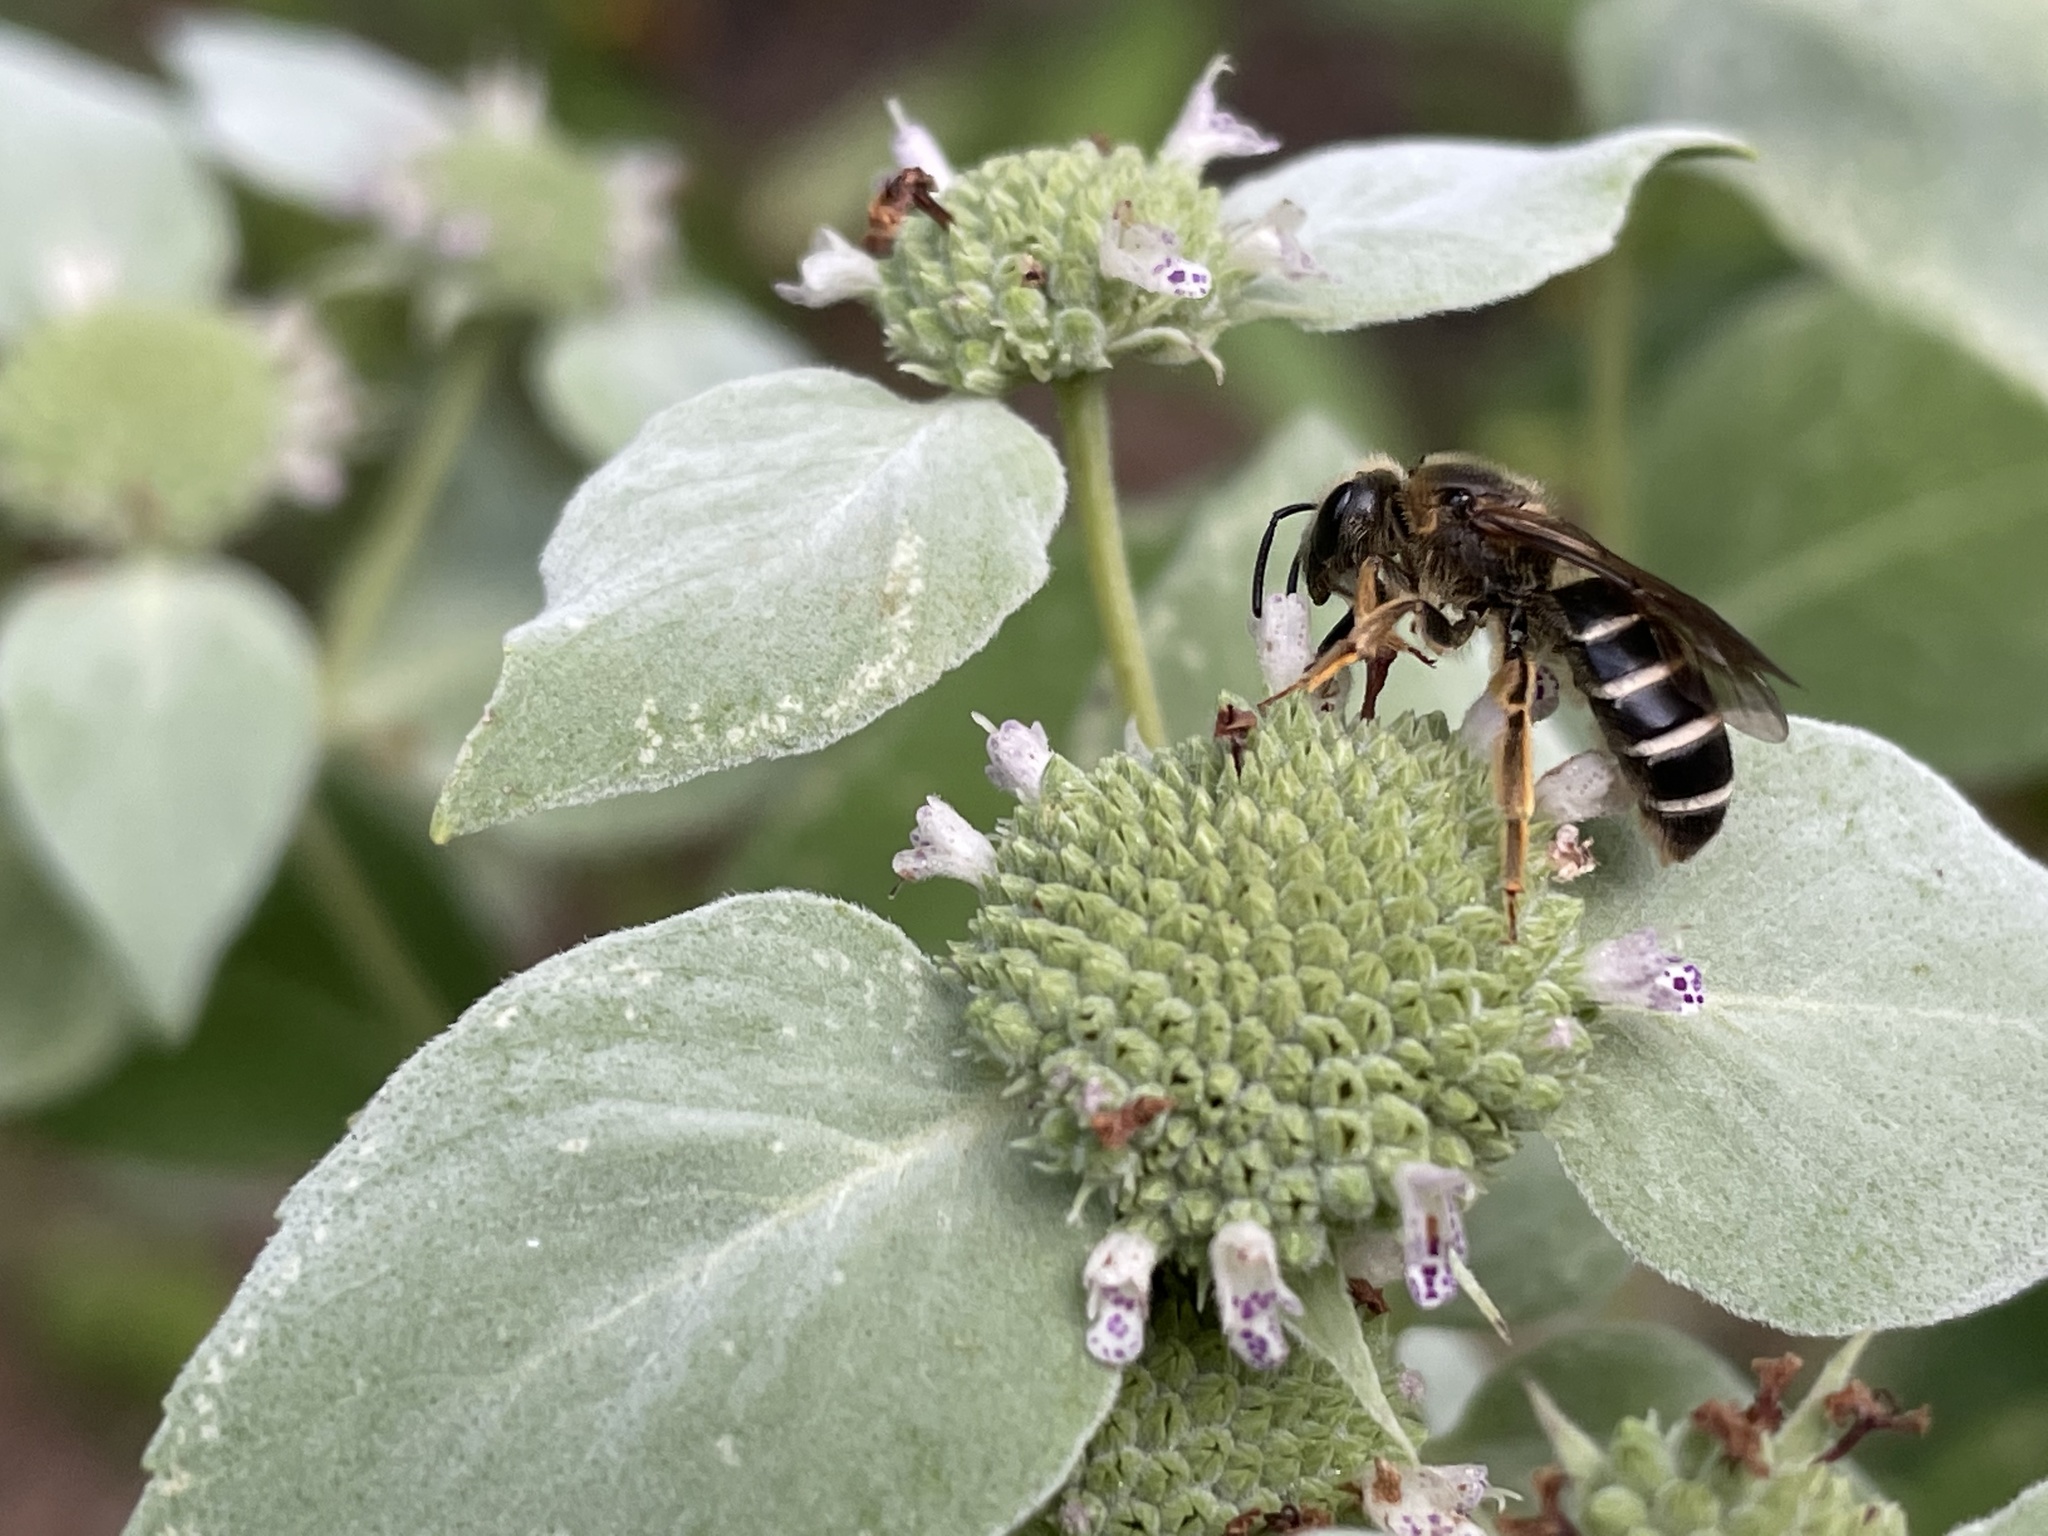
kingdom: Animalia
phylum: Arthropoda
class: Insecta
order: Hymenoptera
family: Halictidae
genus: Halictus
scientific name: Halictus rubicundus
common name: Orange-legged furrow bee
